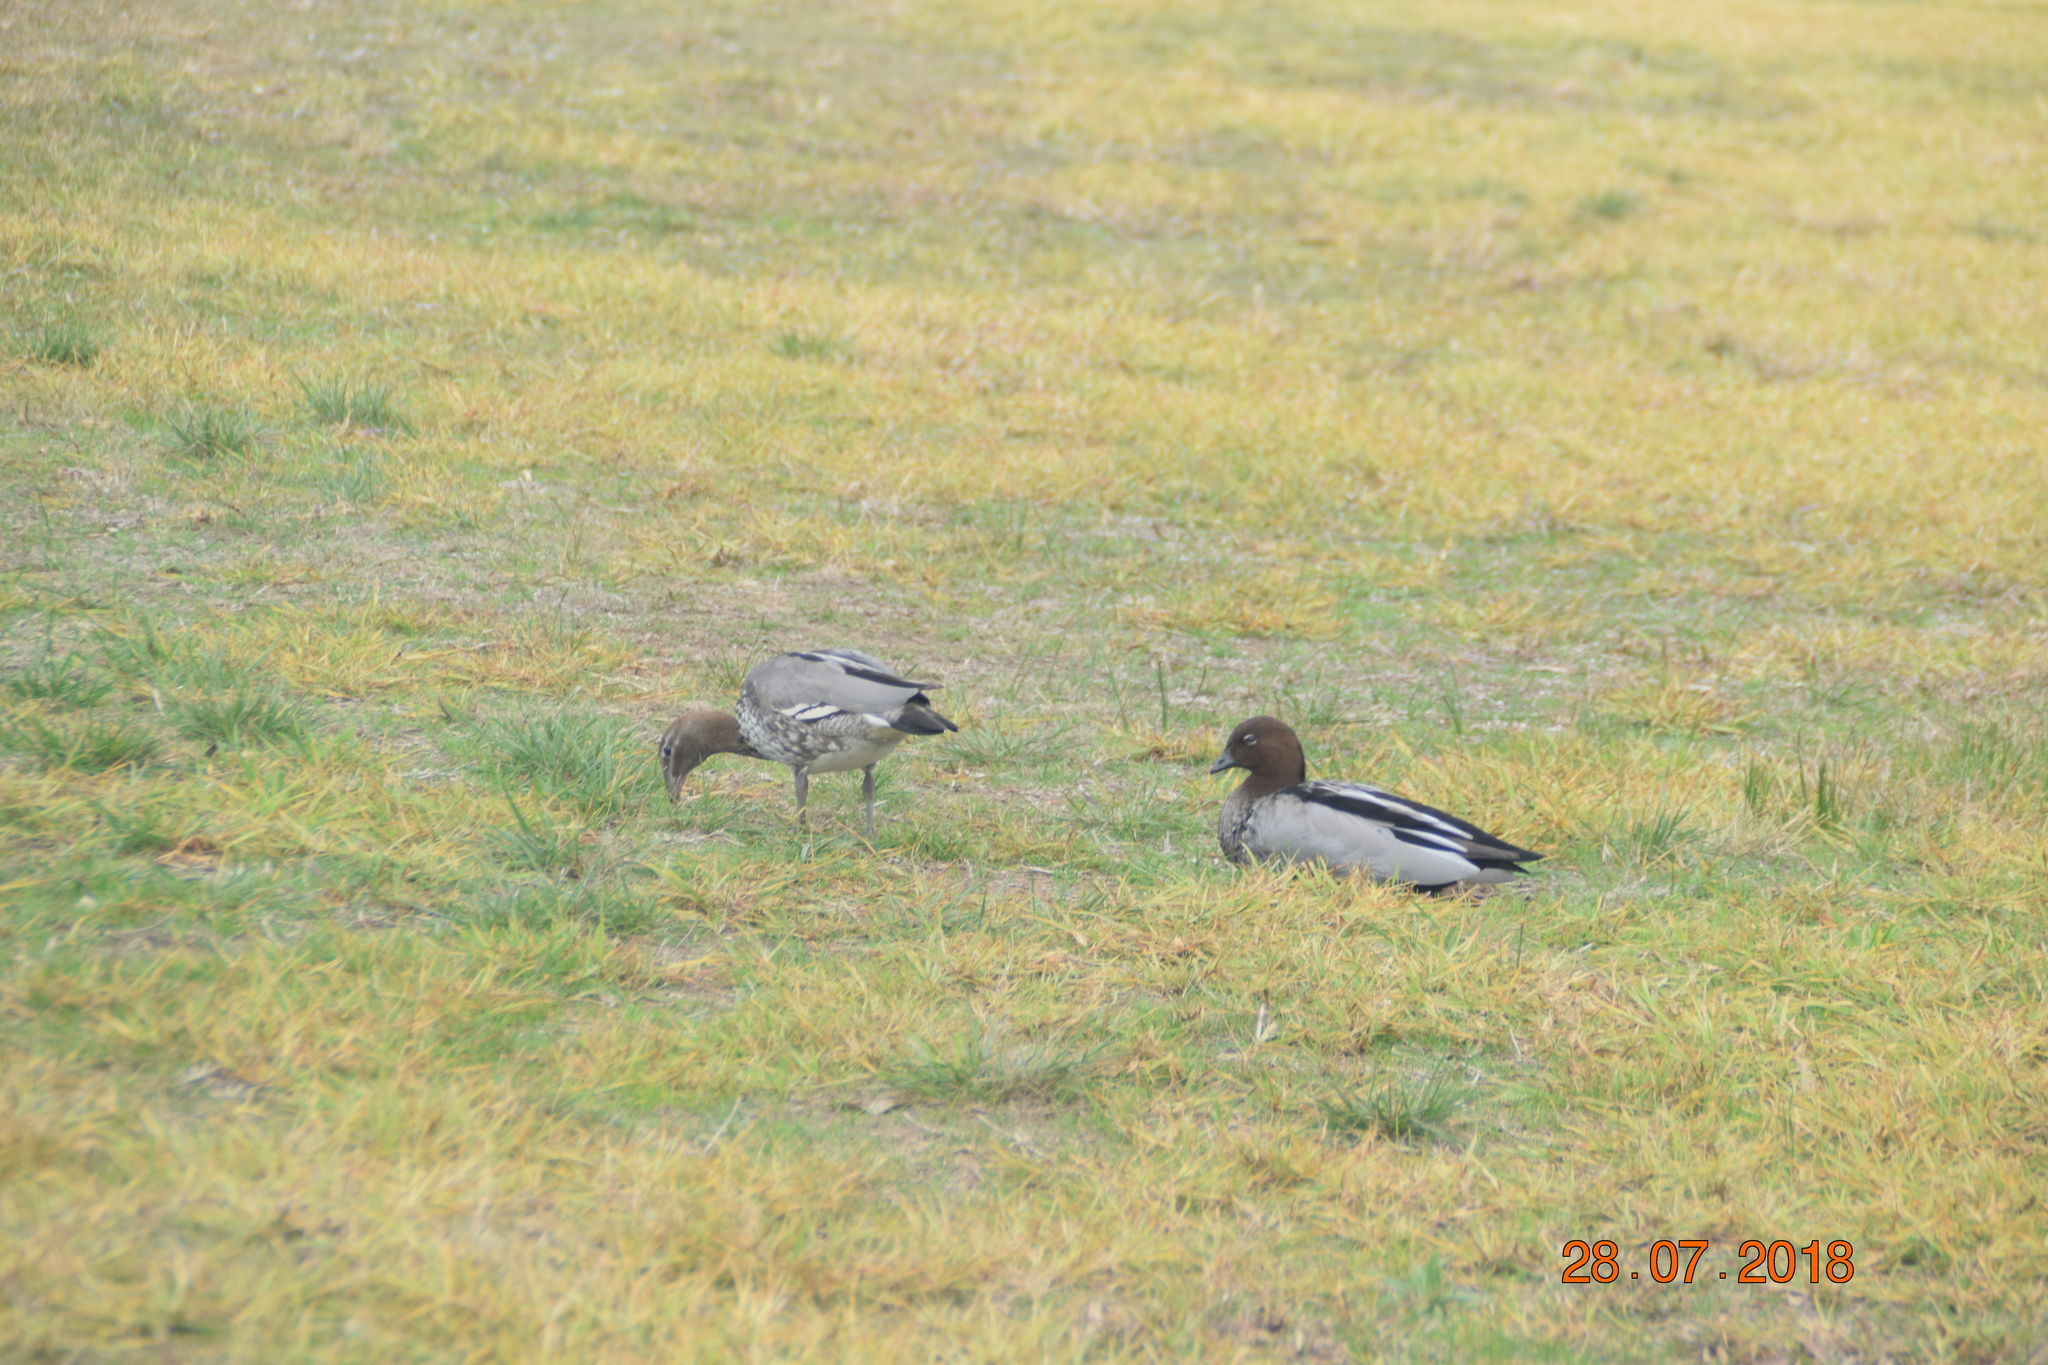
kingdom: Animalia
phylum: Chordata
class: Aves
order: Anseriformes
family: Anatidae
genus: Chenonetta
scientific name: Chenonetta jubata
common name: Maned duck
